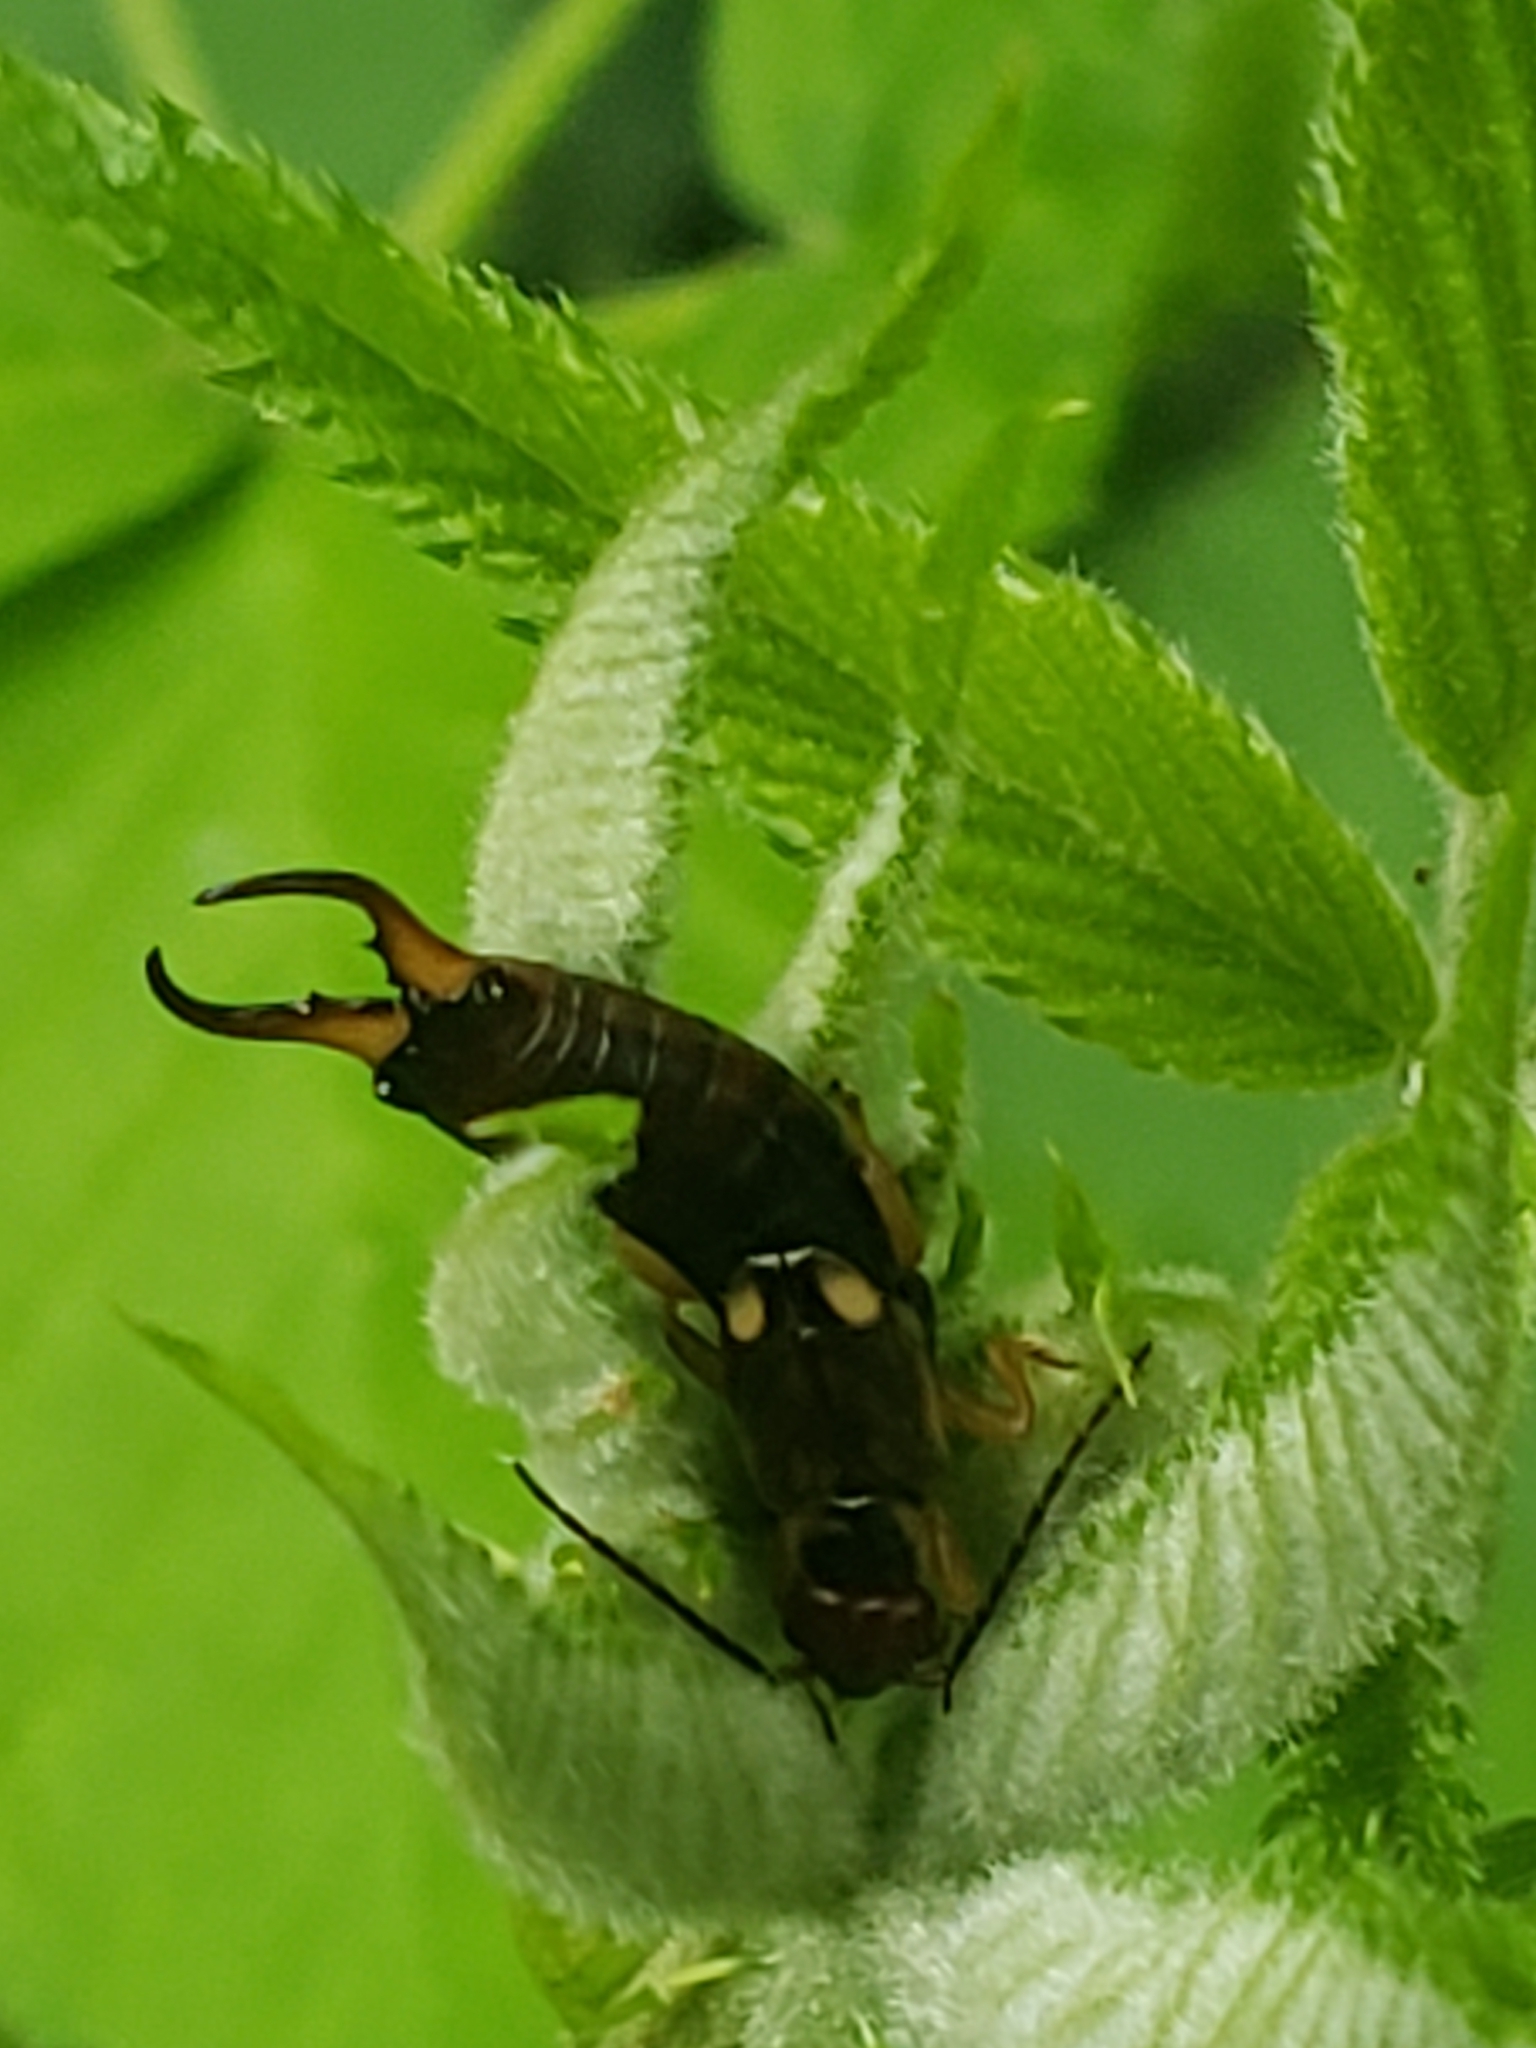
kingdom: Animalia
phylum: Arthropoda
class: Insecta
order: Dermaptera
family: Forficulidae
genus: Forficula
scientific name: Forficula
